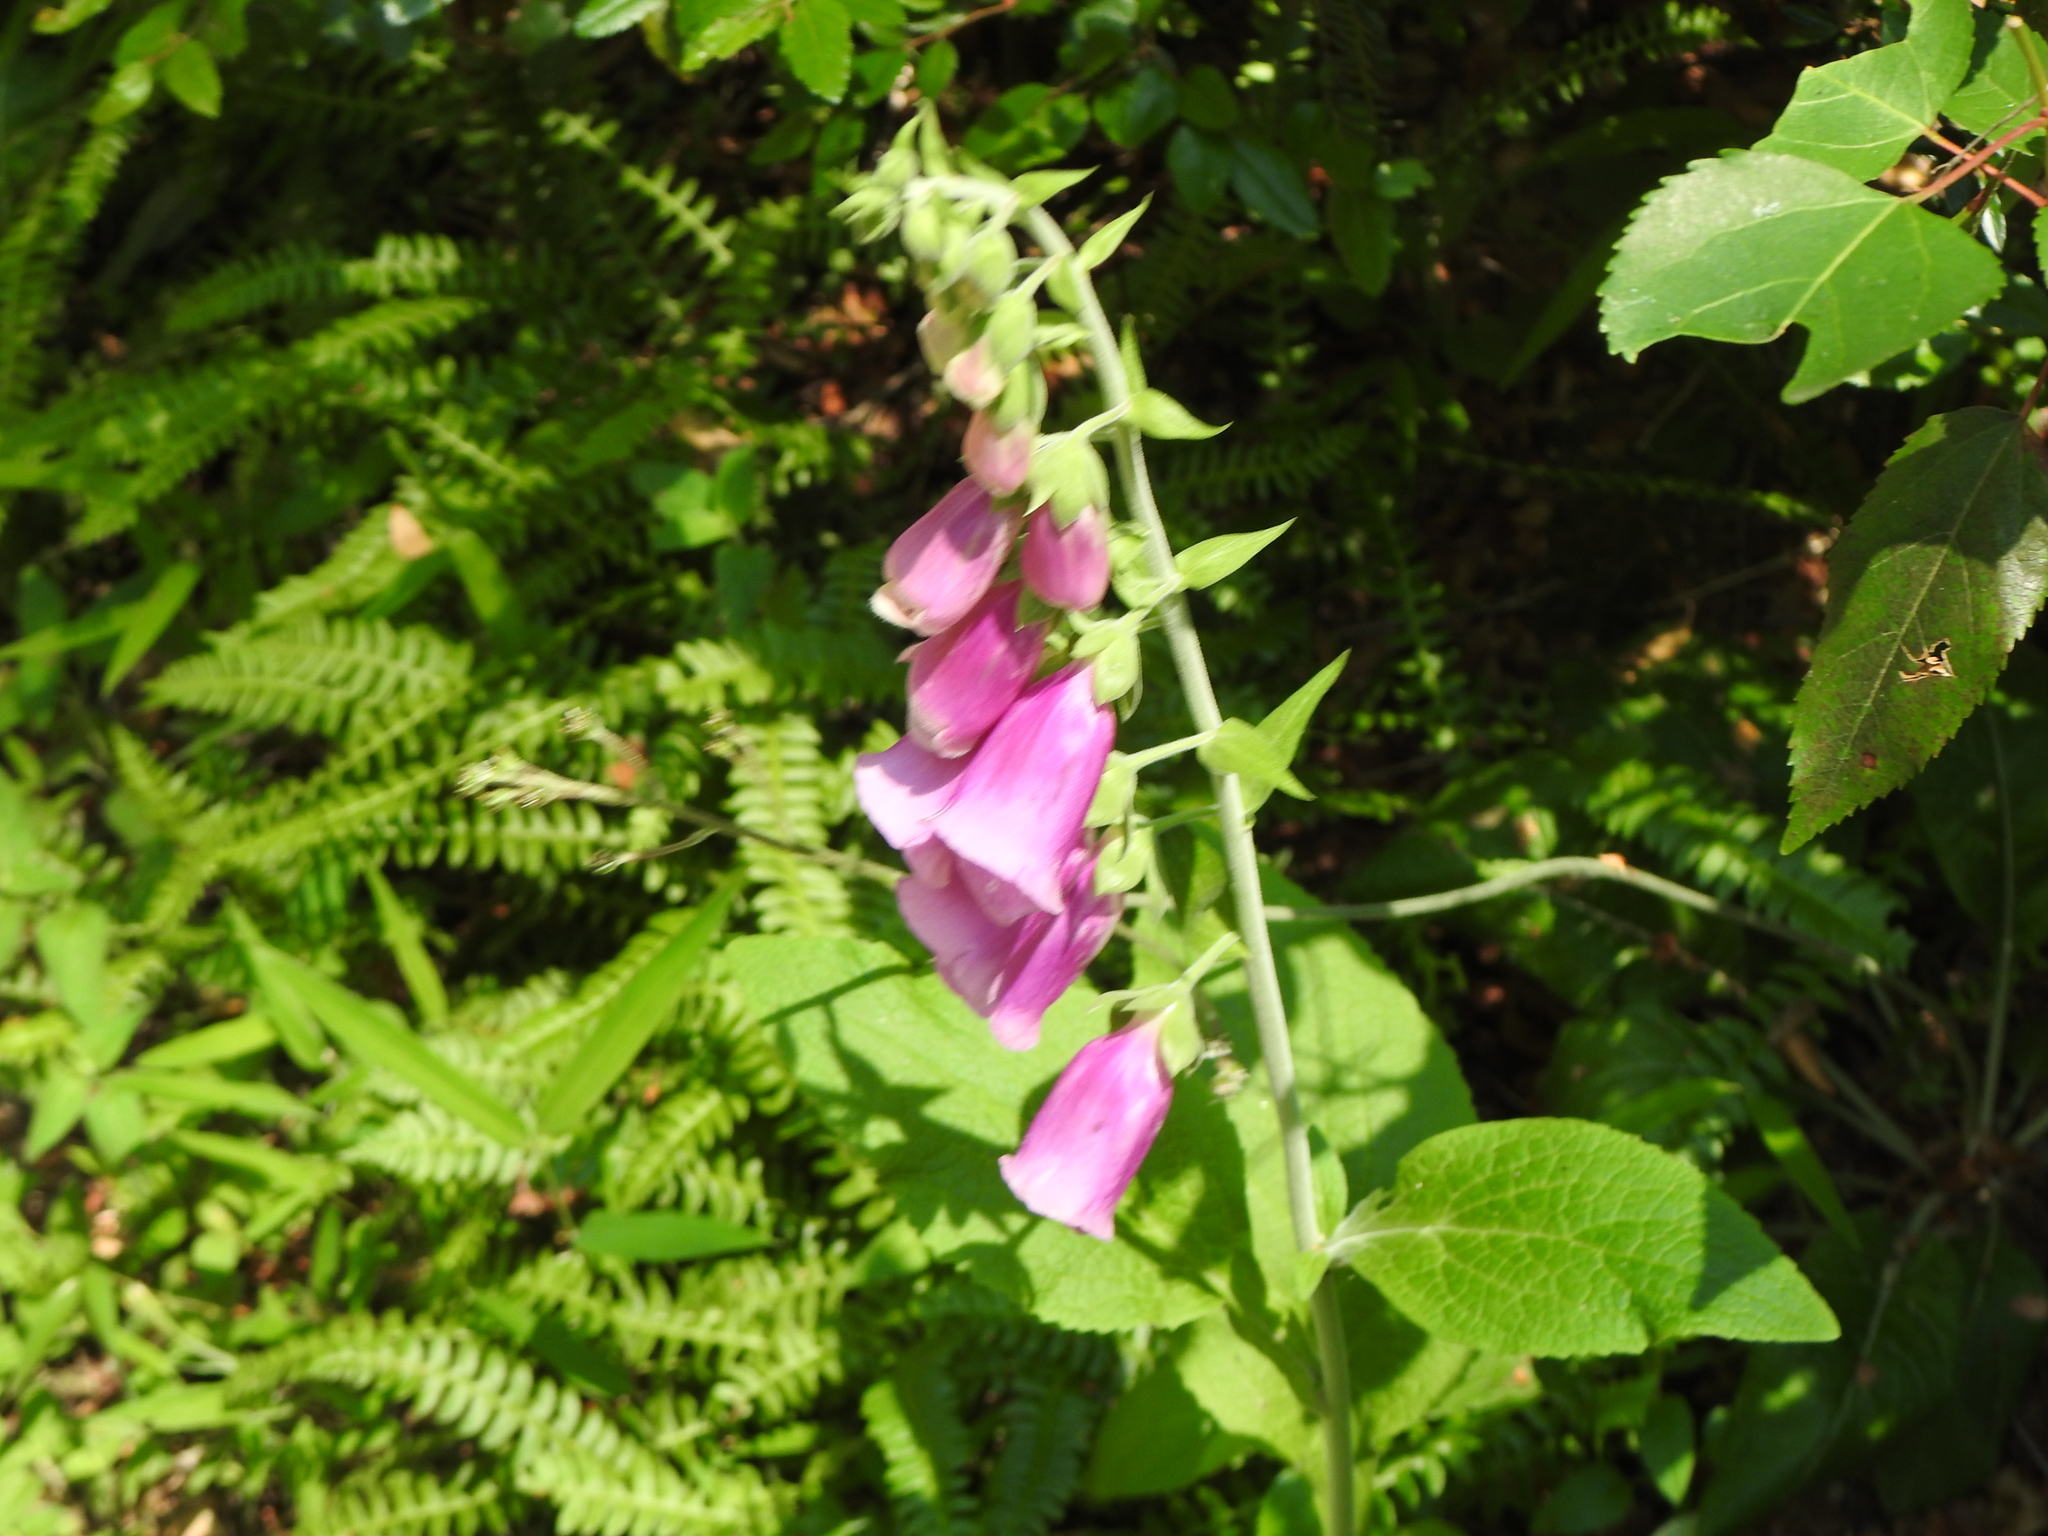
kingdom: Plantae
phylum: Tracheophyta
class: Magnoliopsida
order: Lamiales
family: Plantaginaceae
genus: Digitalis
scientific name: Digitalis purpurea
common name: Foxglove
